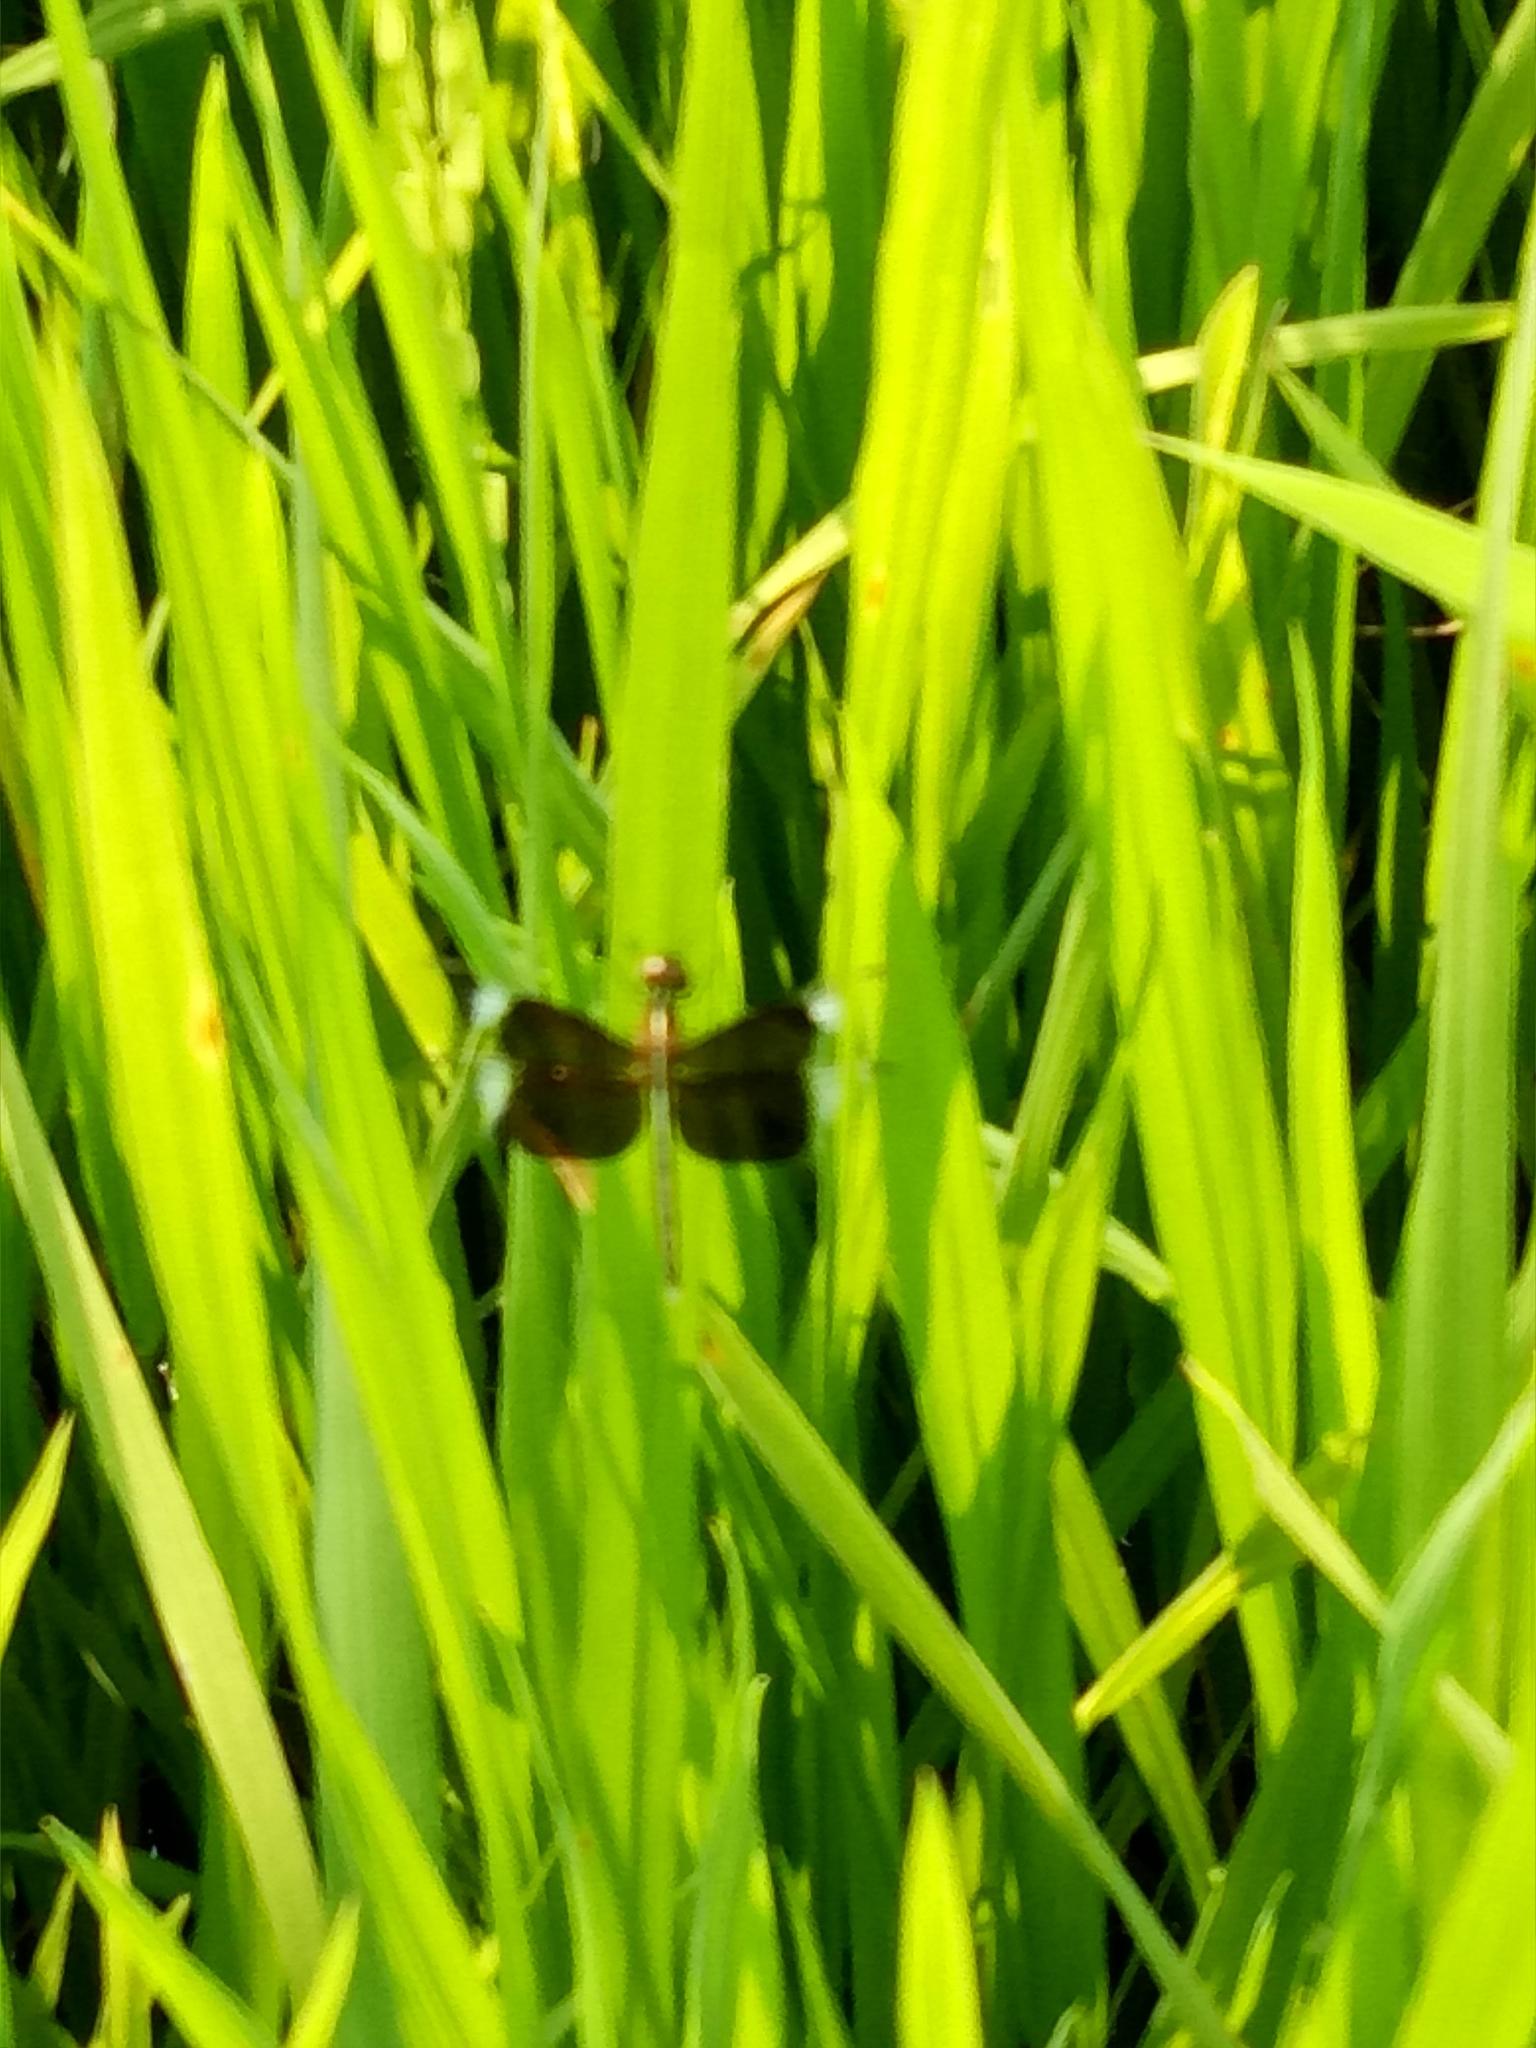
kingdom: Animalia
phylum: Arthropoda
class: Insecta
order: Odonata
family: Libellulidae
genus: Neurothemis
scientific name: Neurothemis tullia
